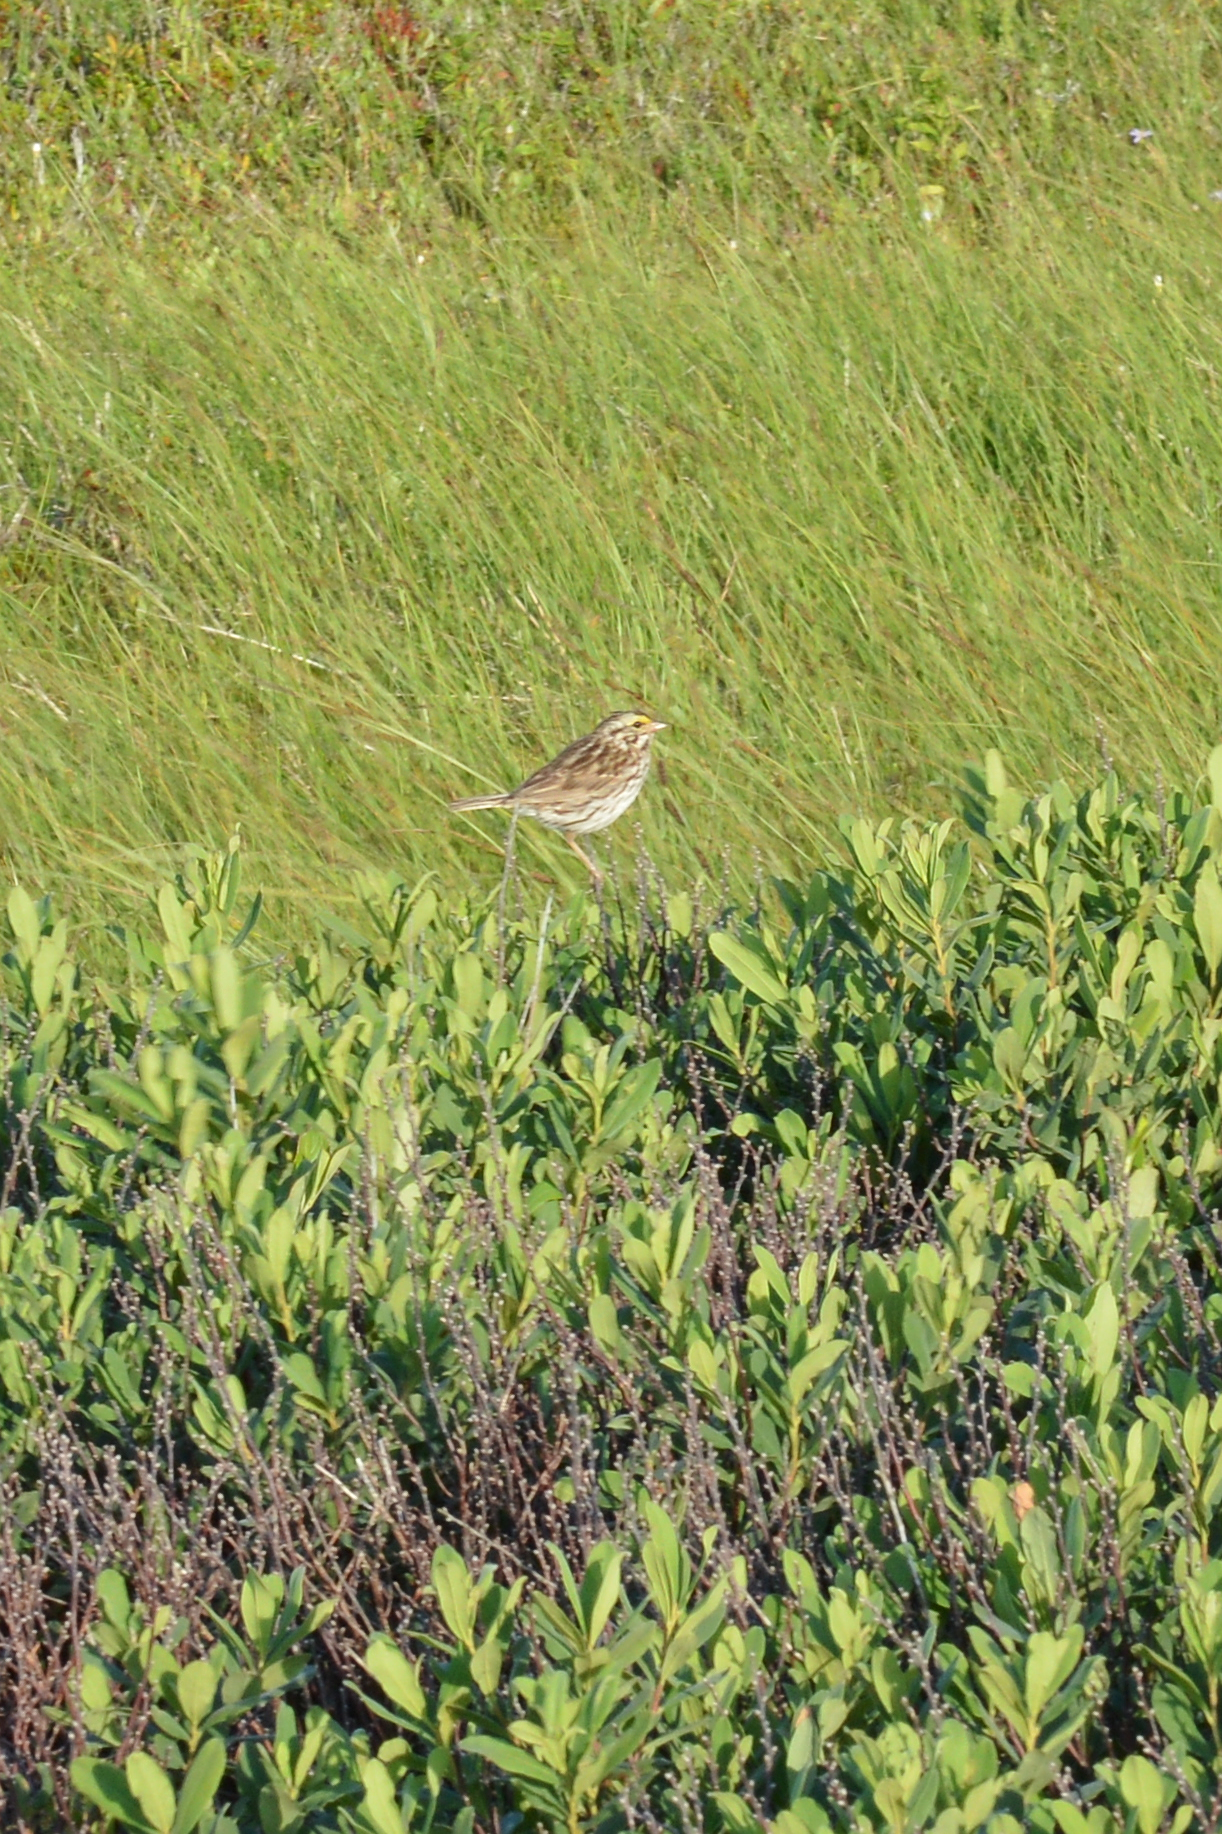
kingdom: Animalia
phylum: Chordata
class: Aves
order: Passeriformes
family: Passerellidae
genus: Passerculus
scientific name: Passerculus sandwichensis
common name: Savannah sparrow
